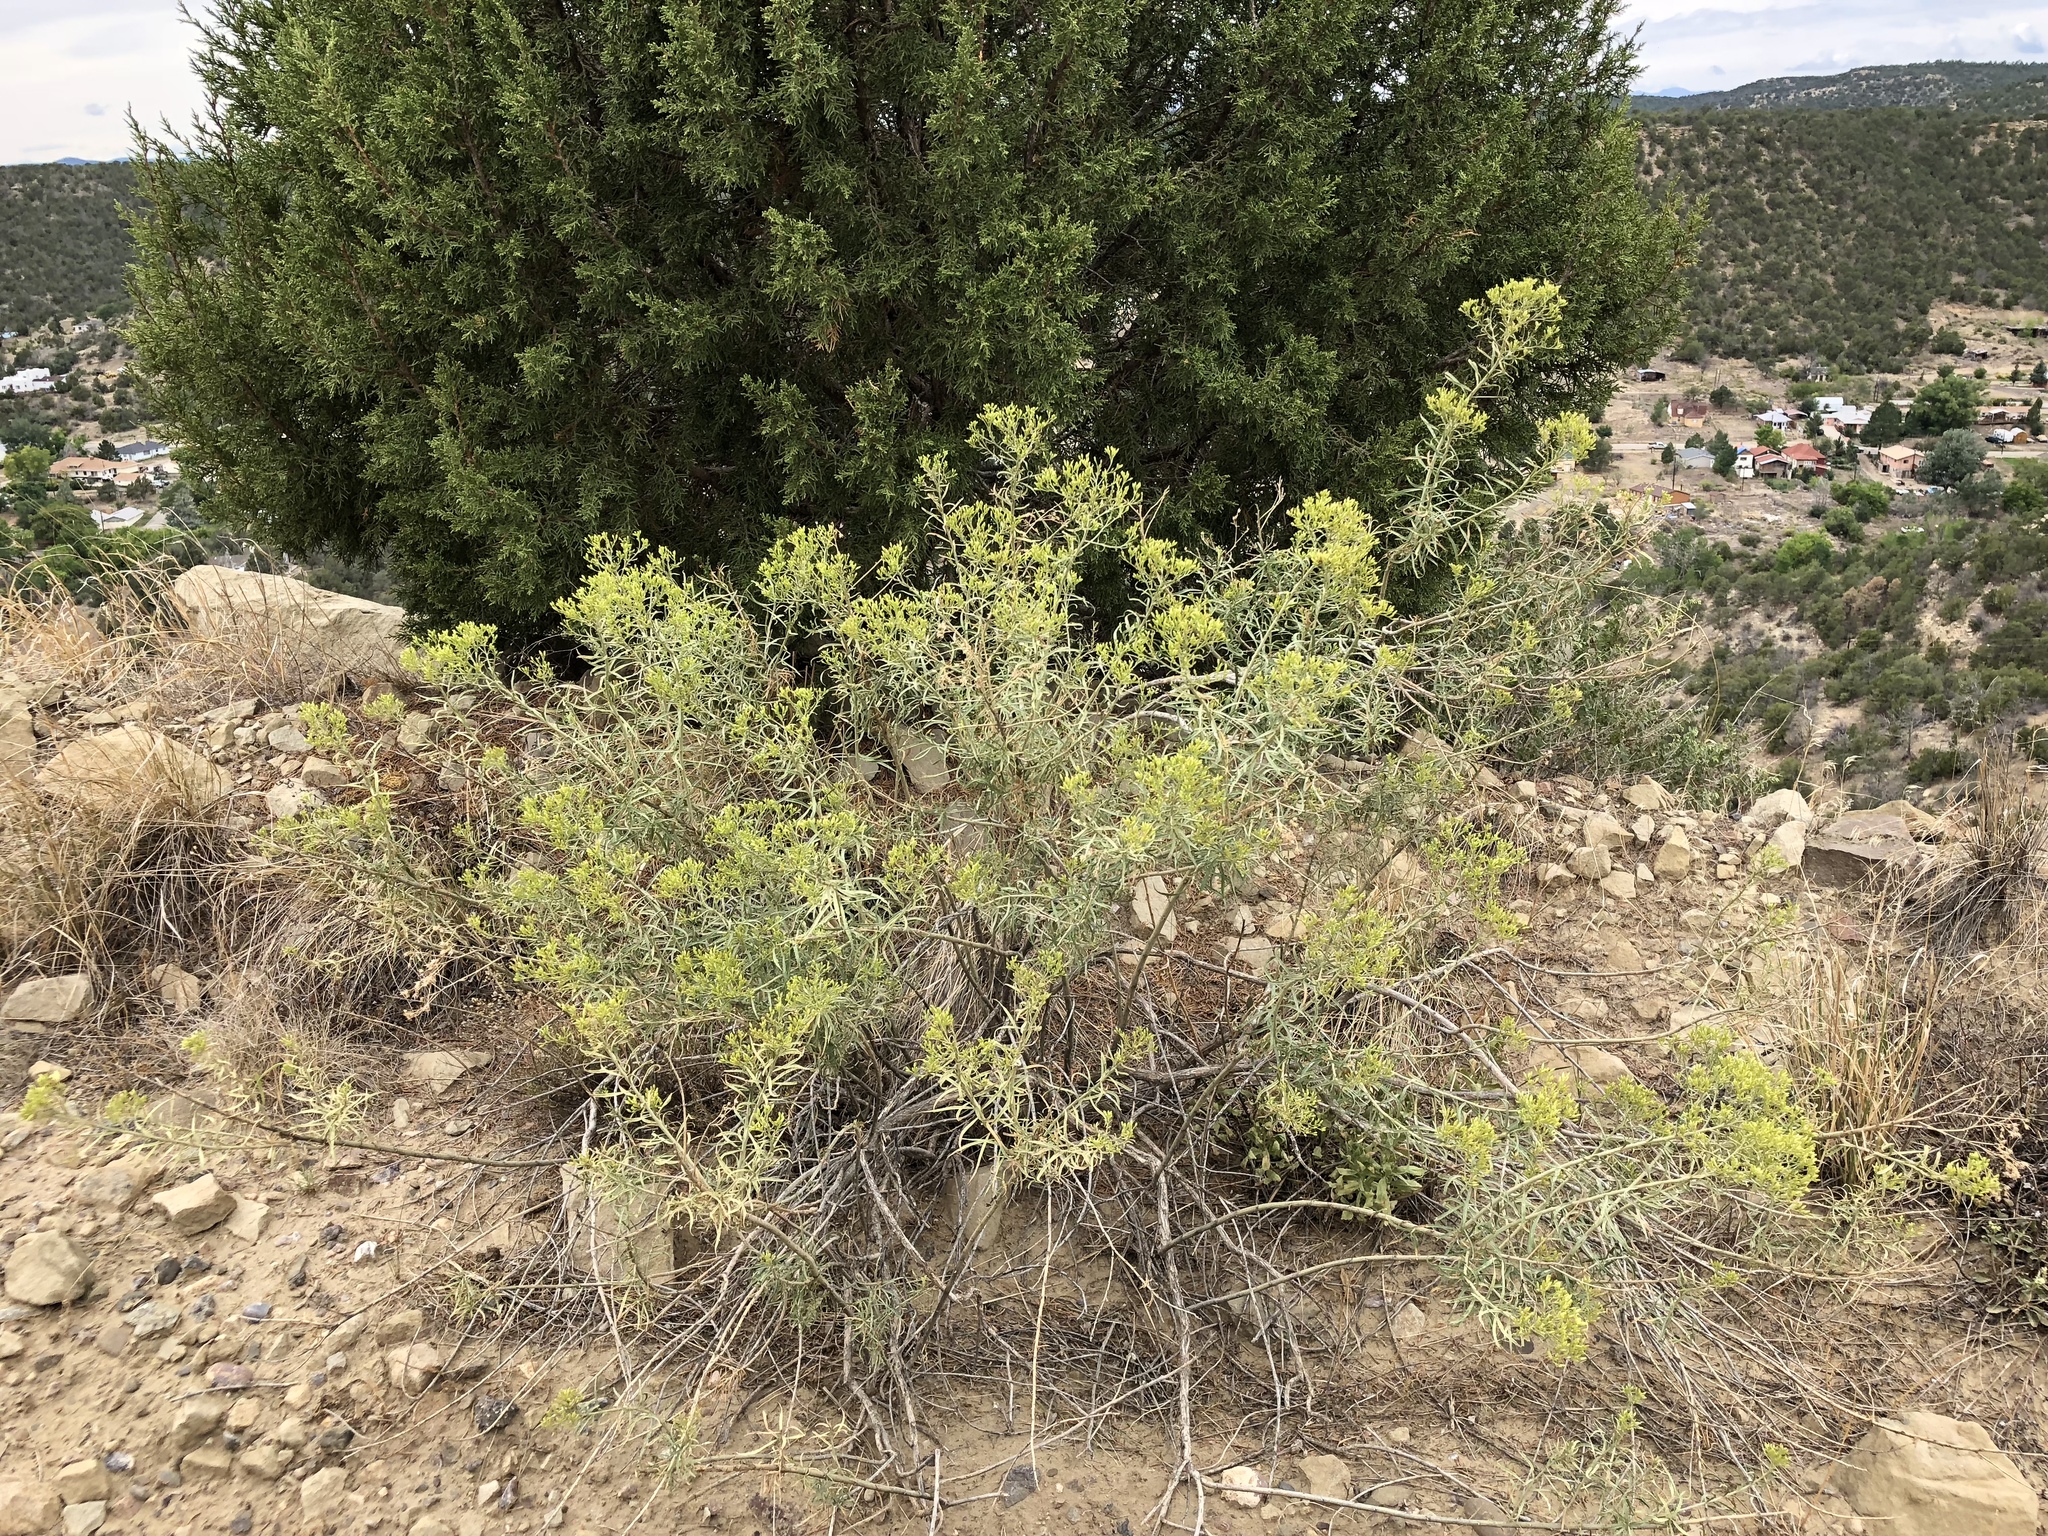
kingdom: Plantae
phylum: Tracheophyta
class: Magnoliopsida
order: Asterales
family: Asteraceae
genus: Ericameria
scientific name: Ericameria nauseosa
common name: Rubber rabbitbrush
